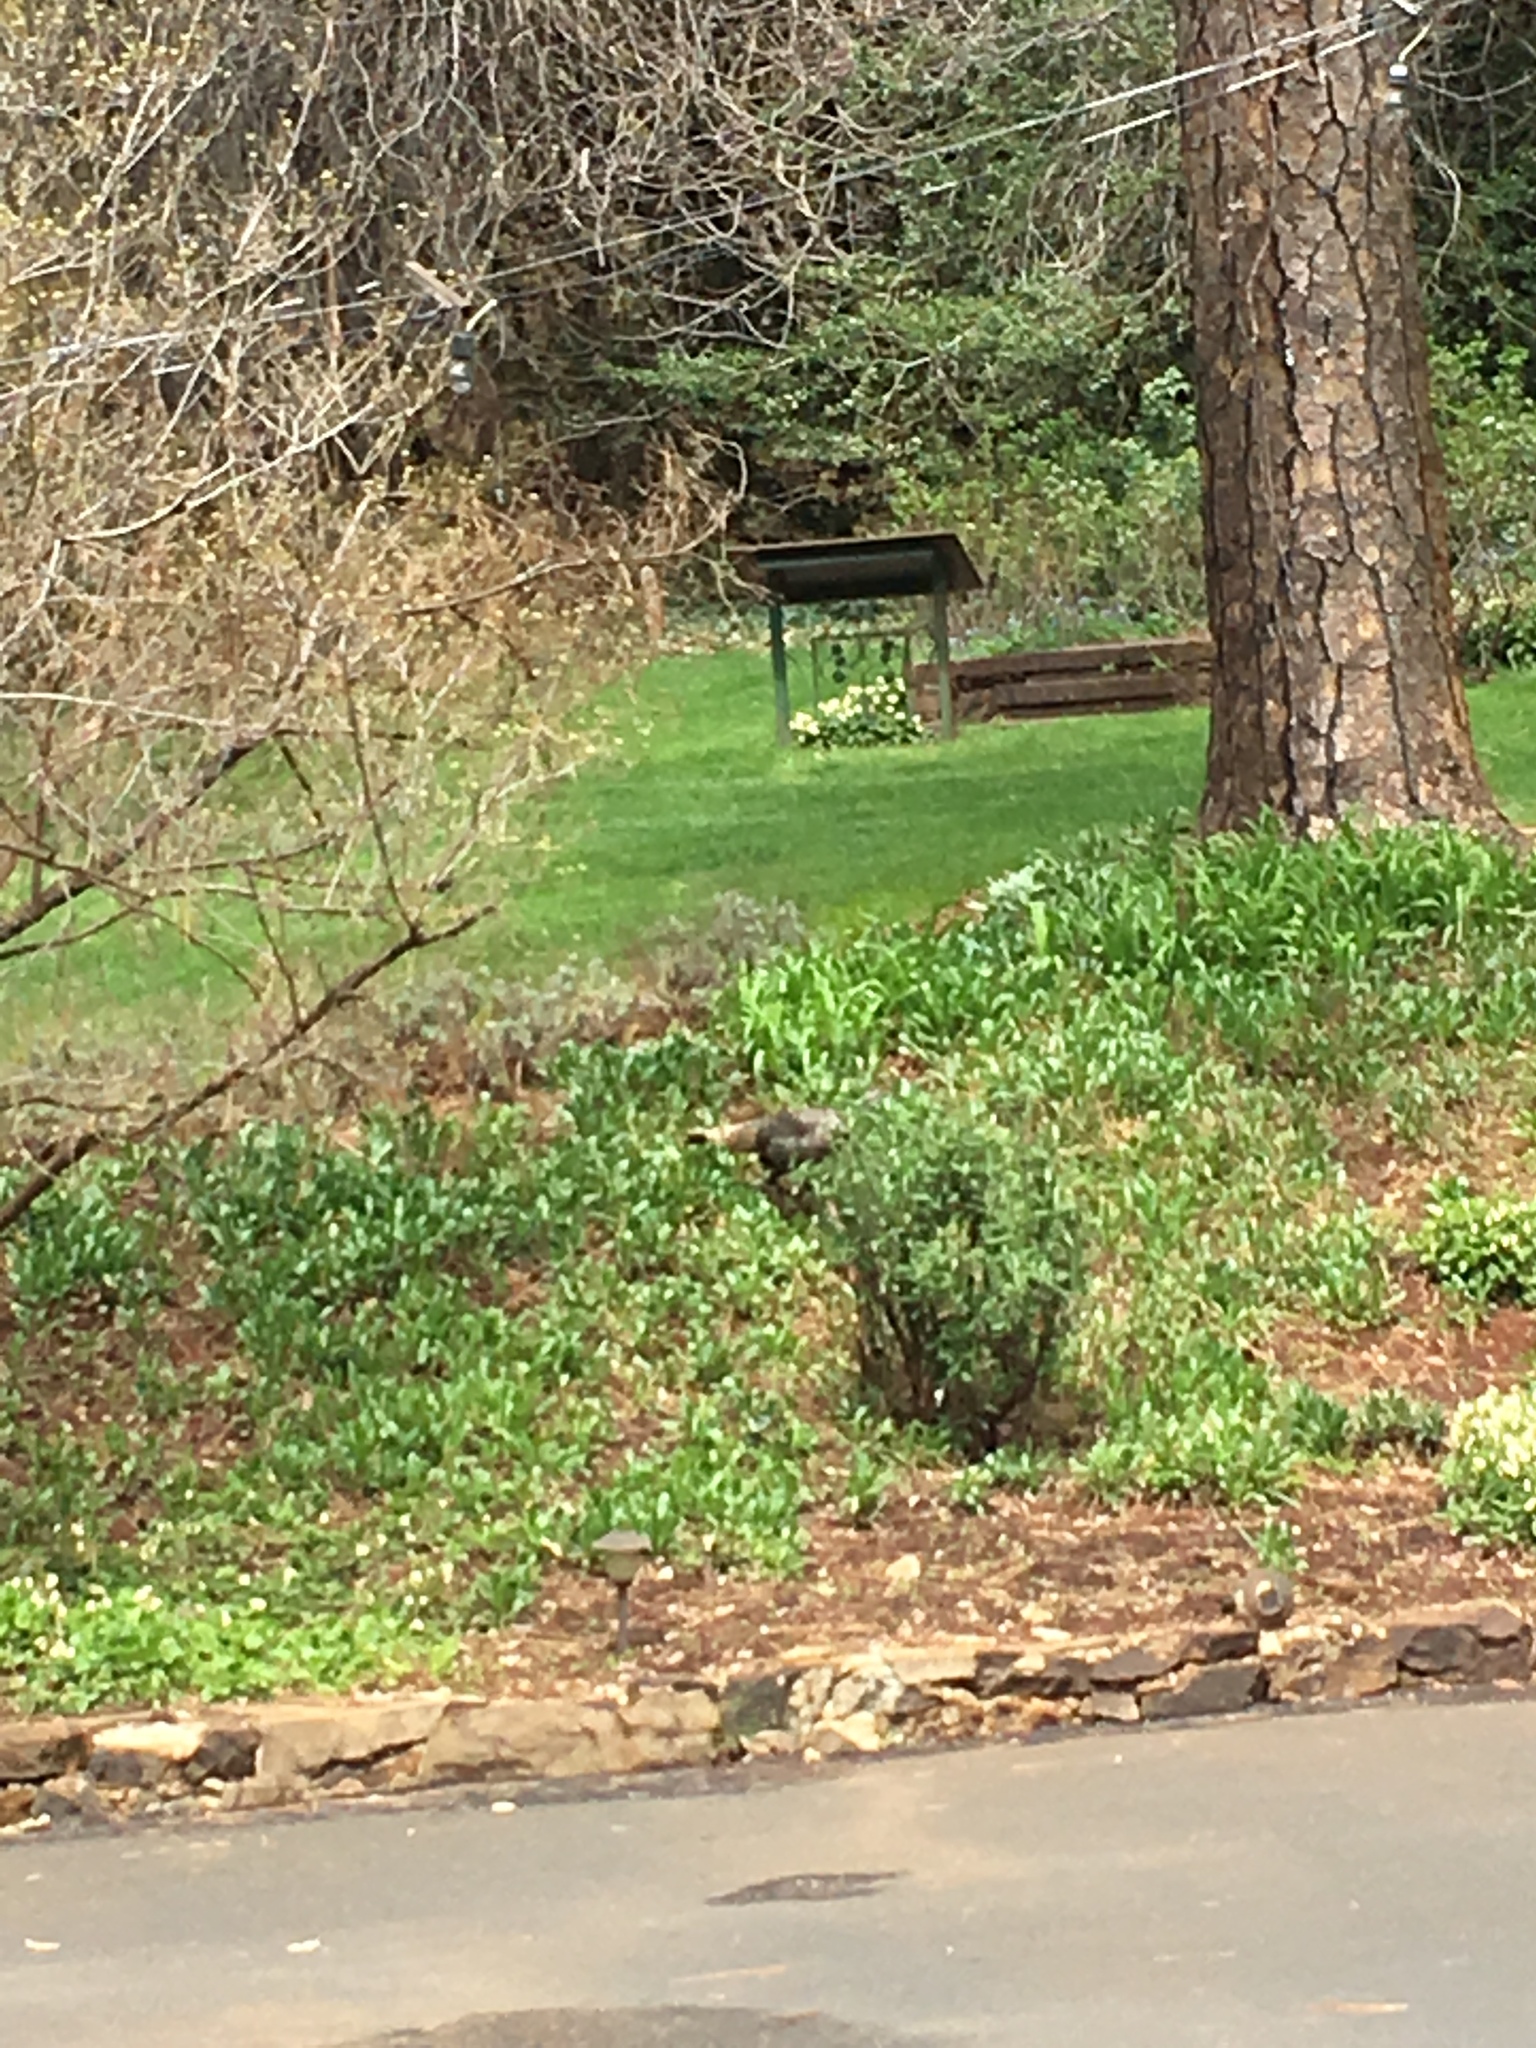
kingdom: Animalia
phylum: Chordata
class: Aves
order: Galliformes
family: Phasianidae
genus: Meleagris
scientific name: Meleagris gallopavo
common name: Wild turkey
